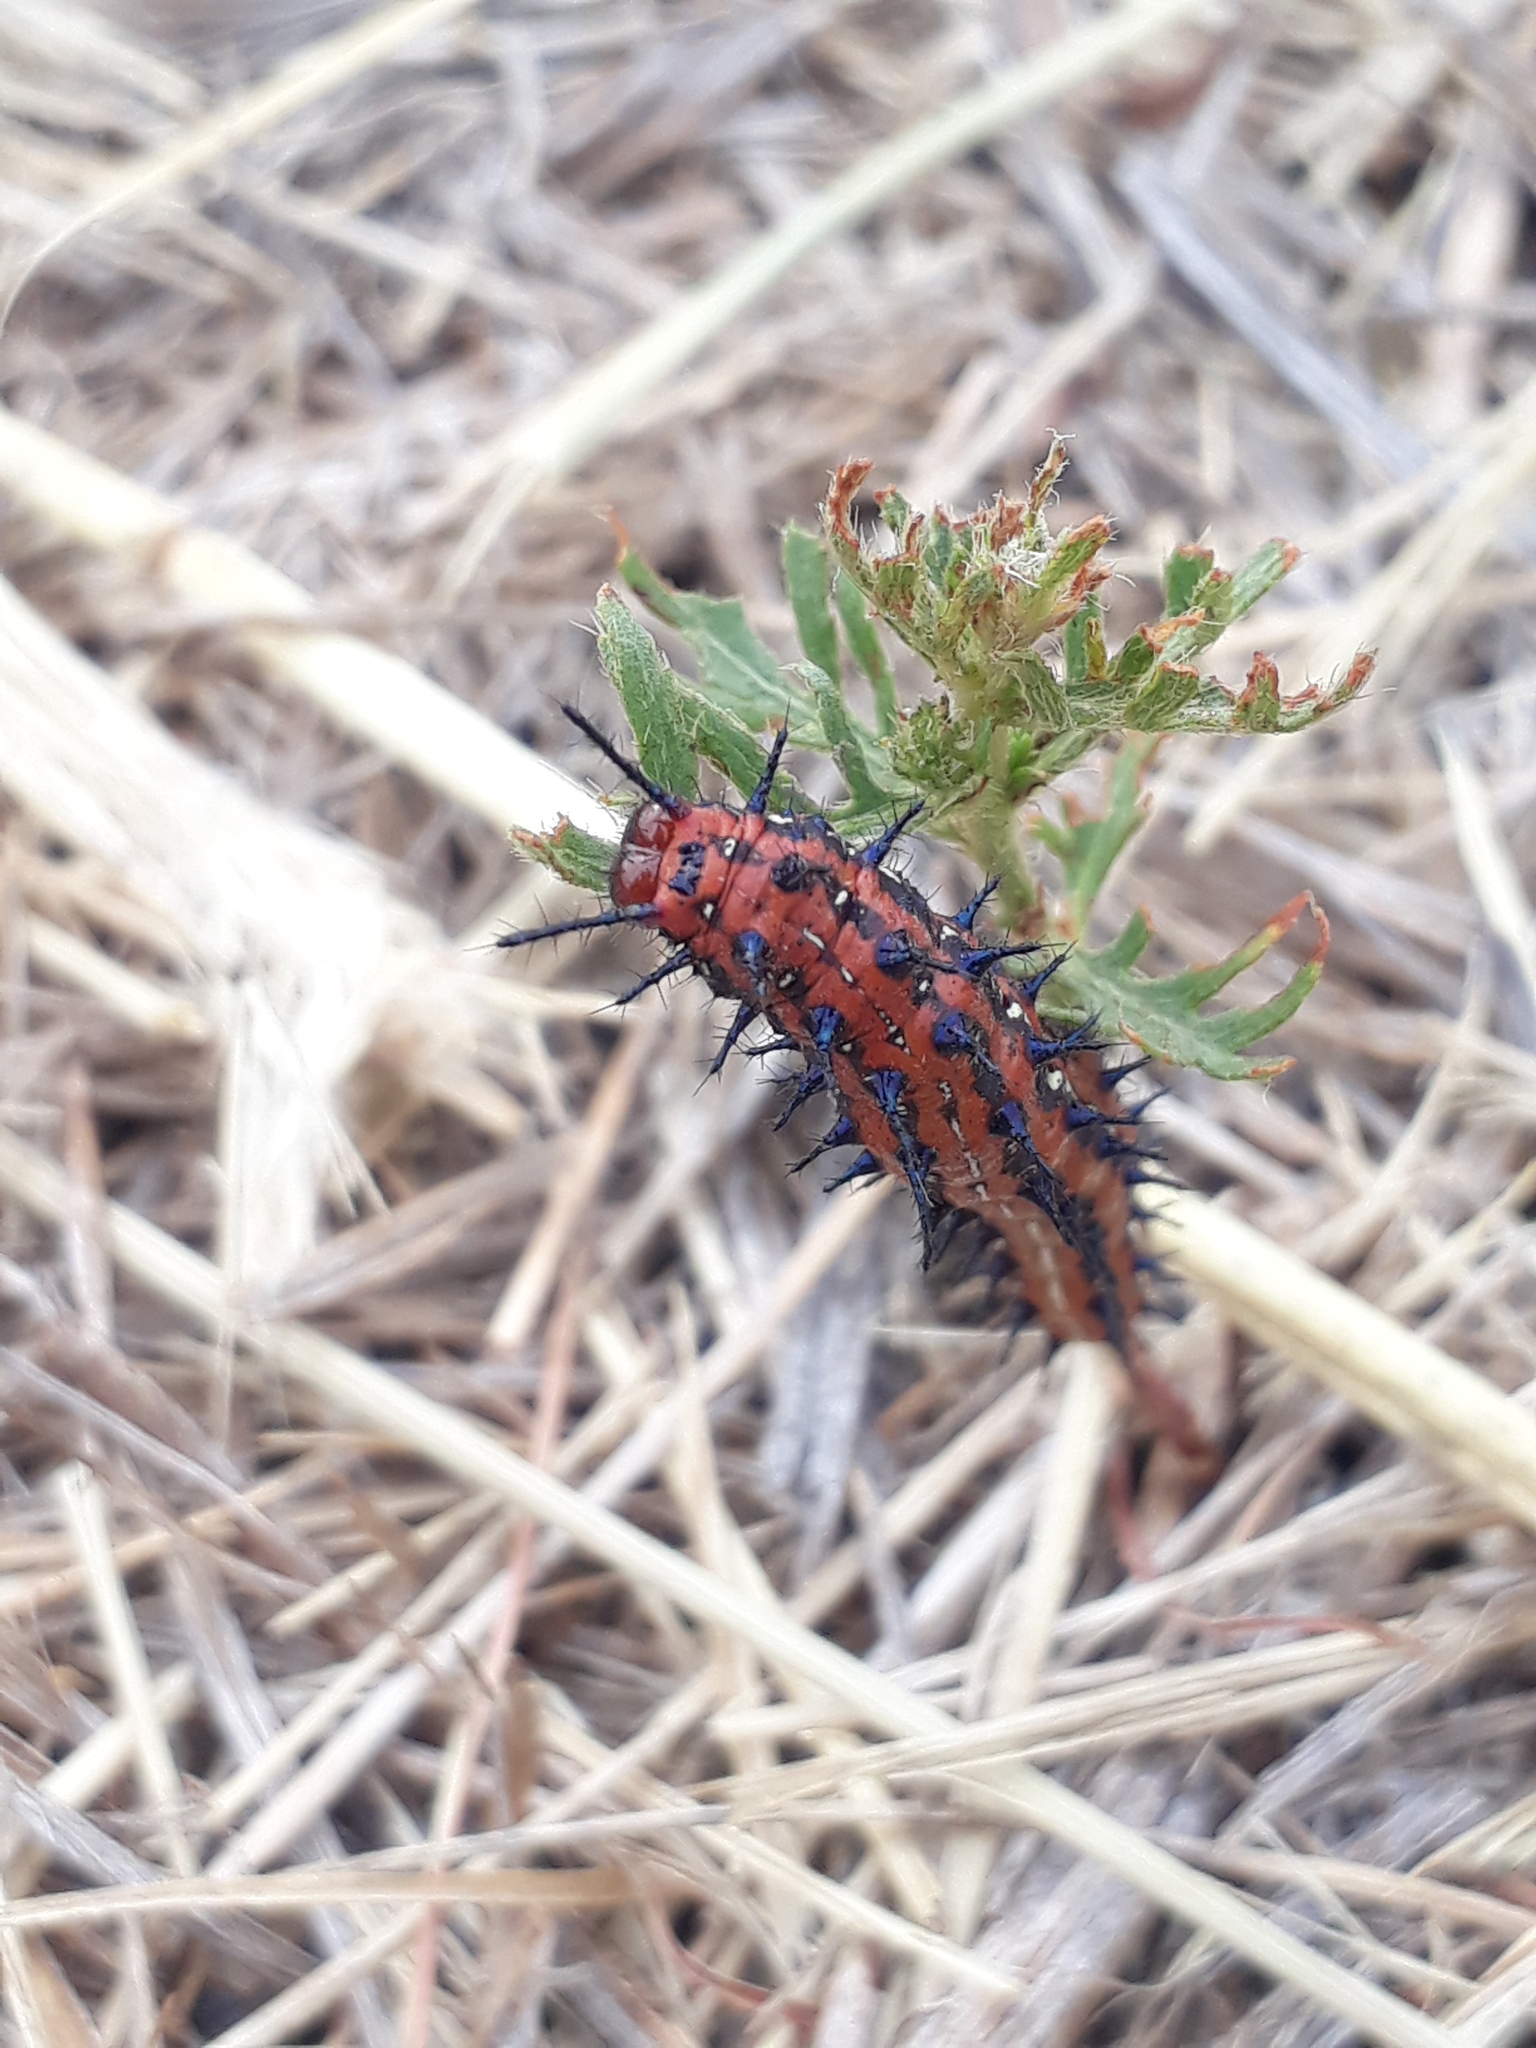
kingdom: Animalia
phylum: Arthropoda
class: Insecta
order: Lepidoptera
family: Nymphalidae
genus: Euptoieta
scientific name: Euptoieta hortensia
